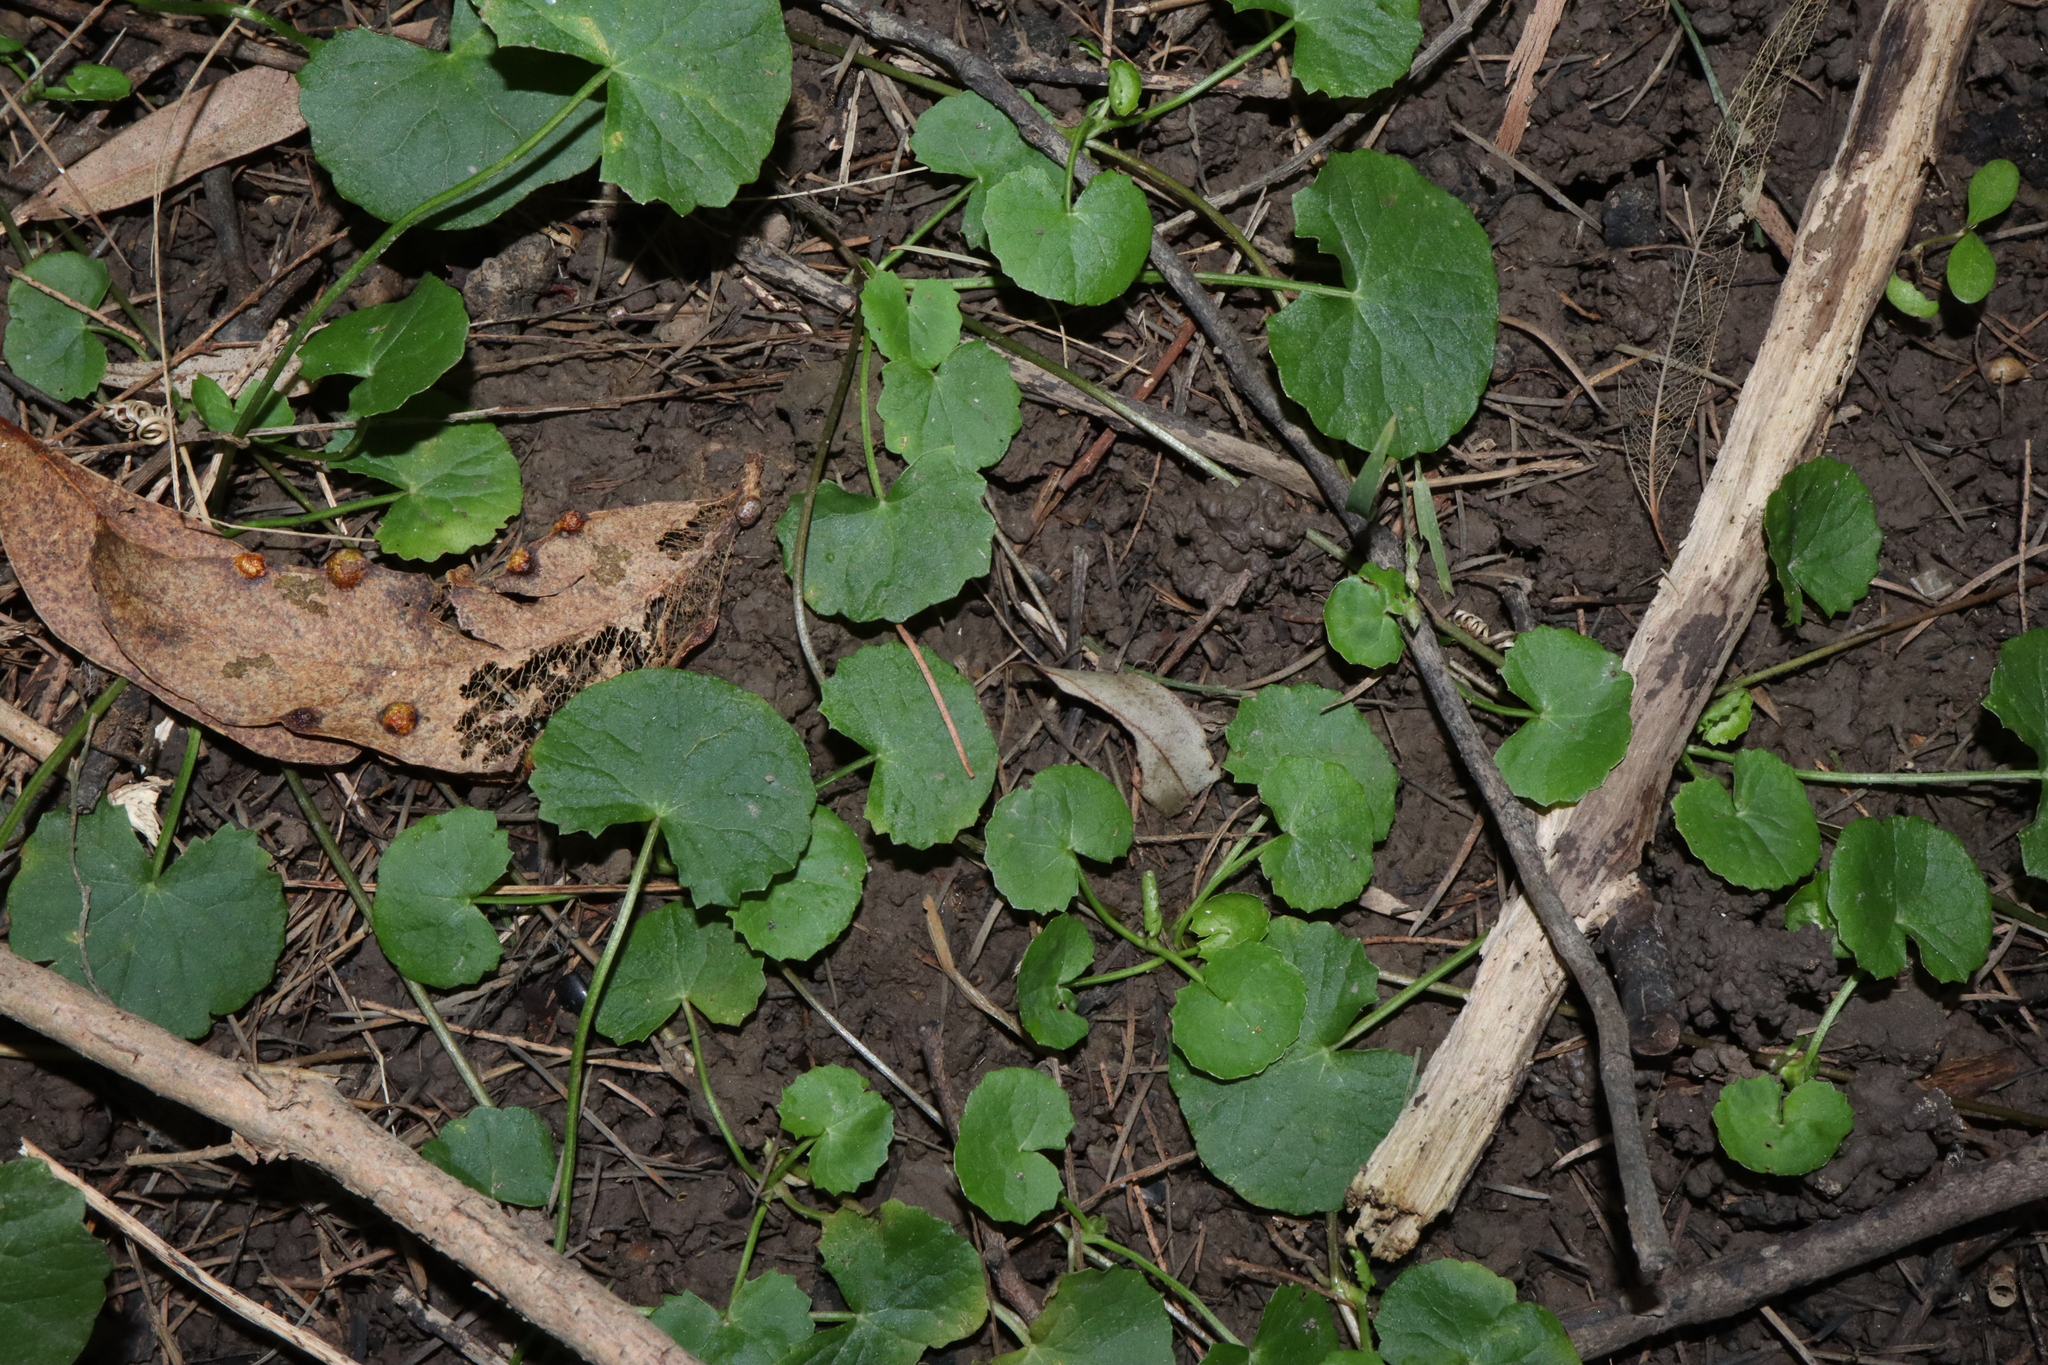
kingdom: Plantae
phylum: Tracheophyta
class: Magnoliopsida
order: Apiales
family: Apiaceae
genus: Centella
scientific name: Centella asiatica
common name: Spadeleaf
